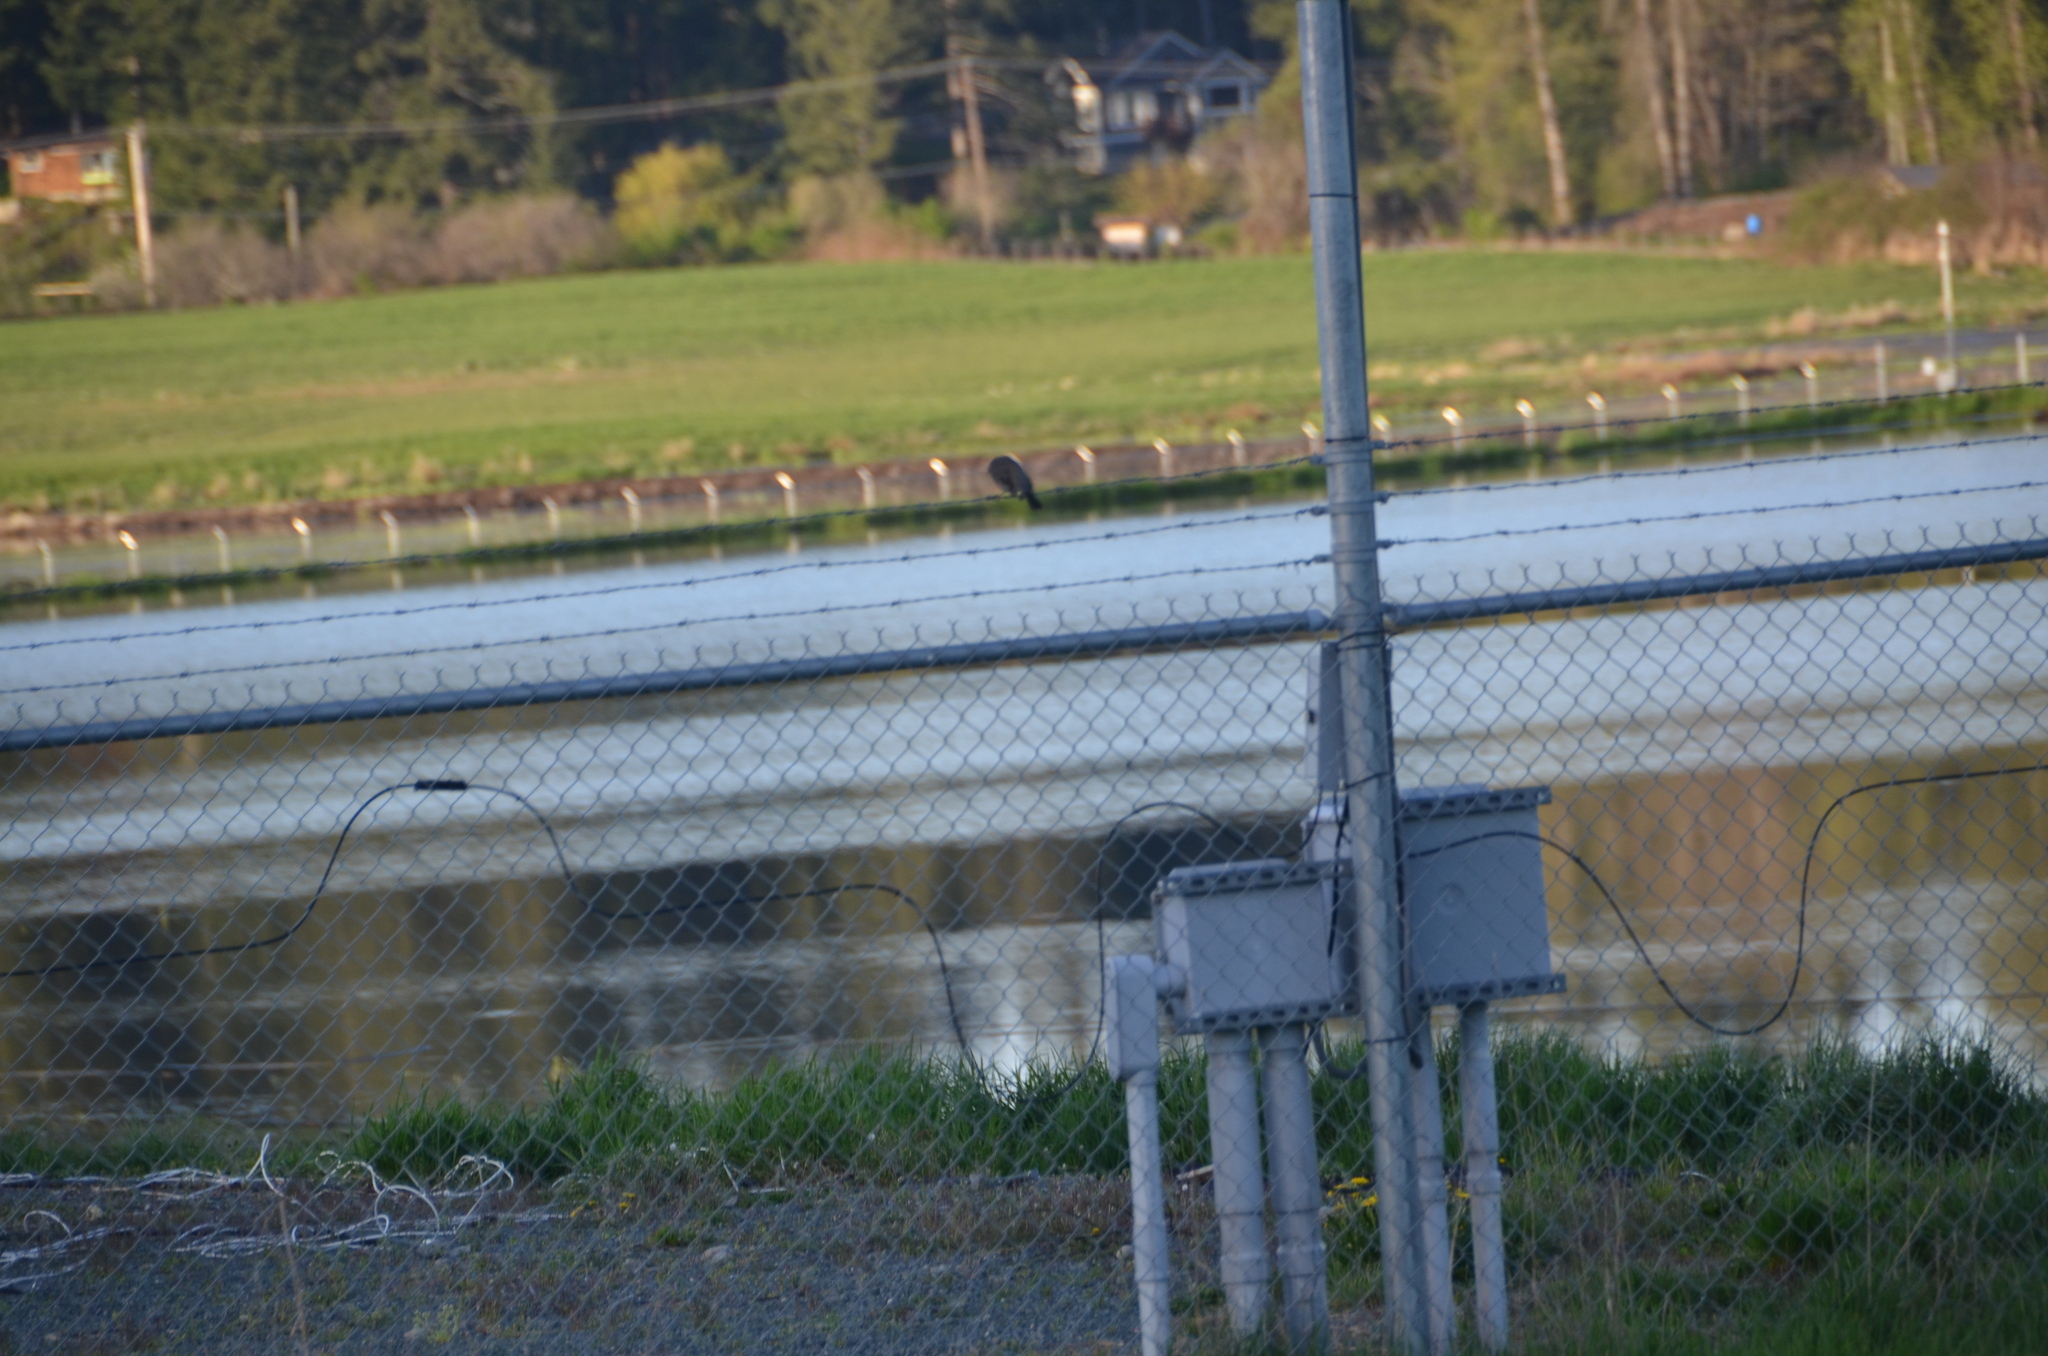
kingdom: Animalia
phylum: Chordata
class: Aves
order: Passeriformes
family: Turdidae
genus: Turdus
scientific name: Turdus migratorius
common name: American robin
